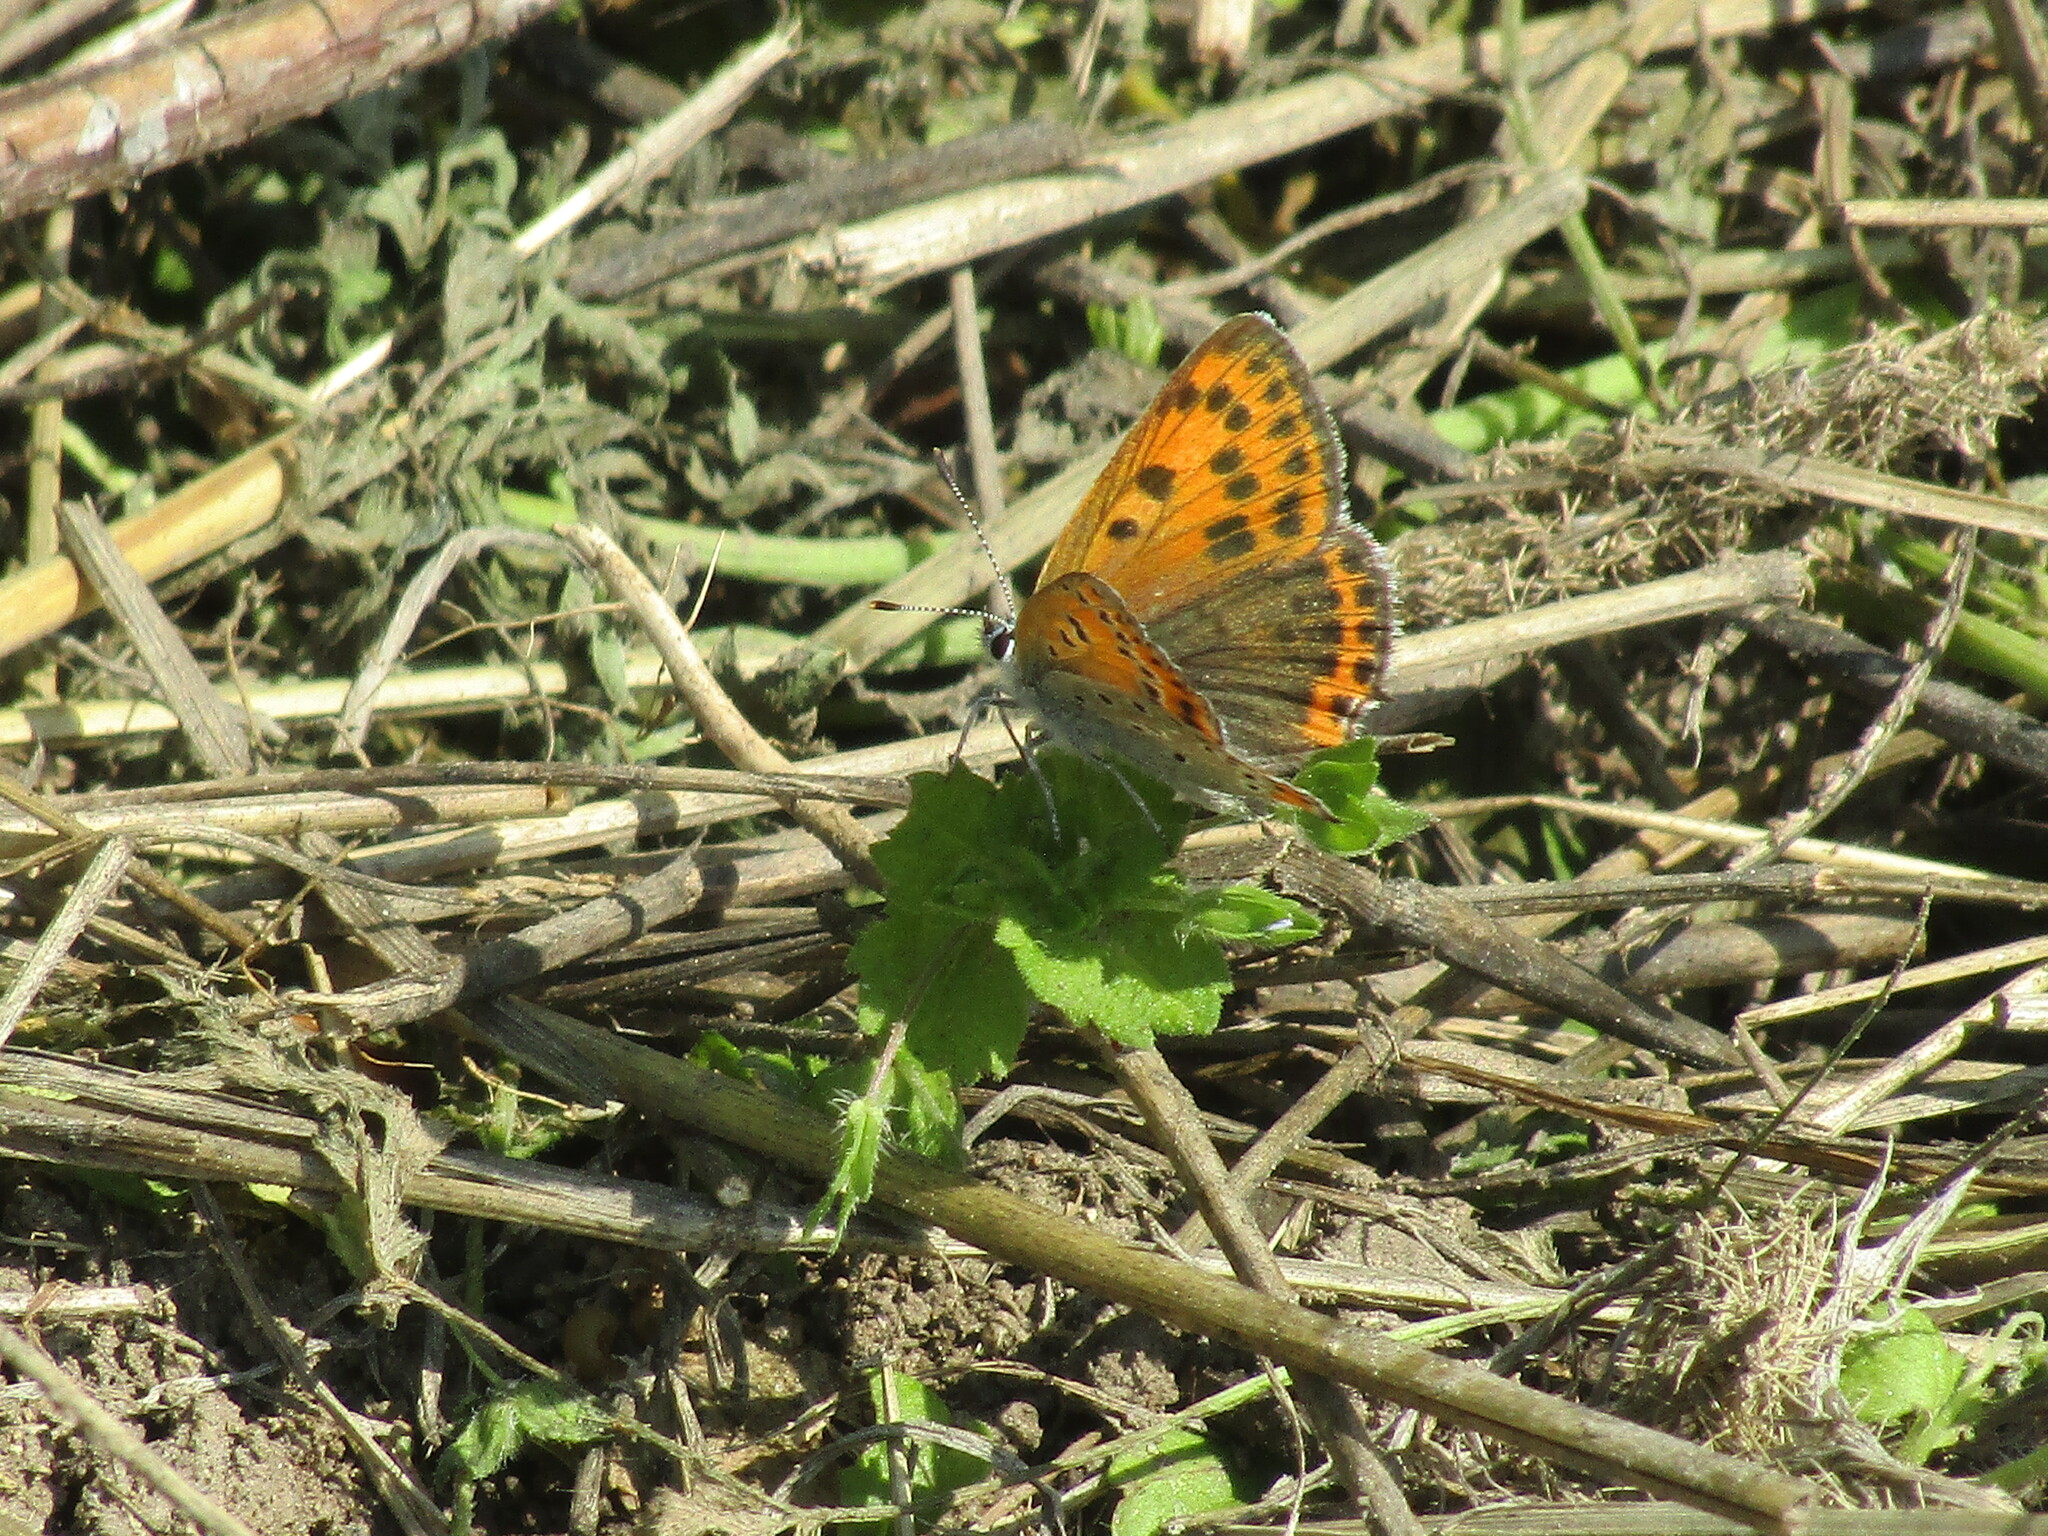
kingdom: Animalia
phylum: Arthropoda
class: Insecta
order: Lepidoptera
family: Lycaenidae
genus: Thersamonia
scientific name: Thersamonia thersamon
